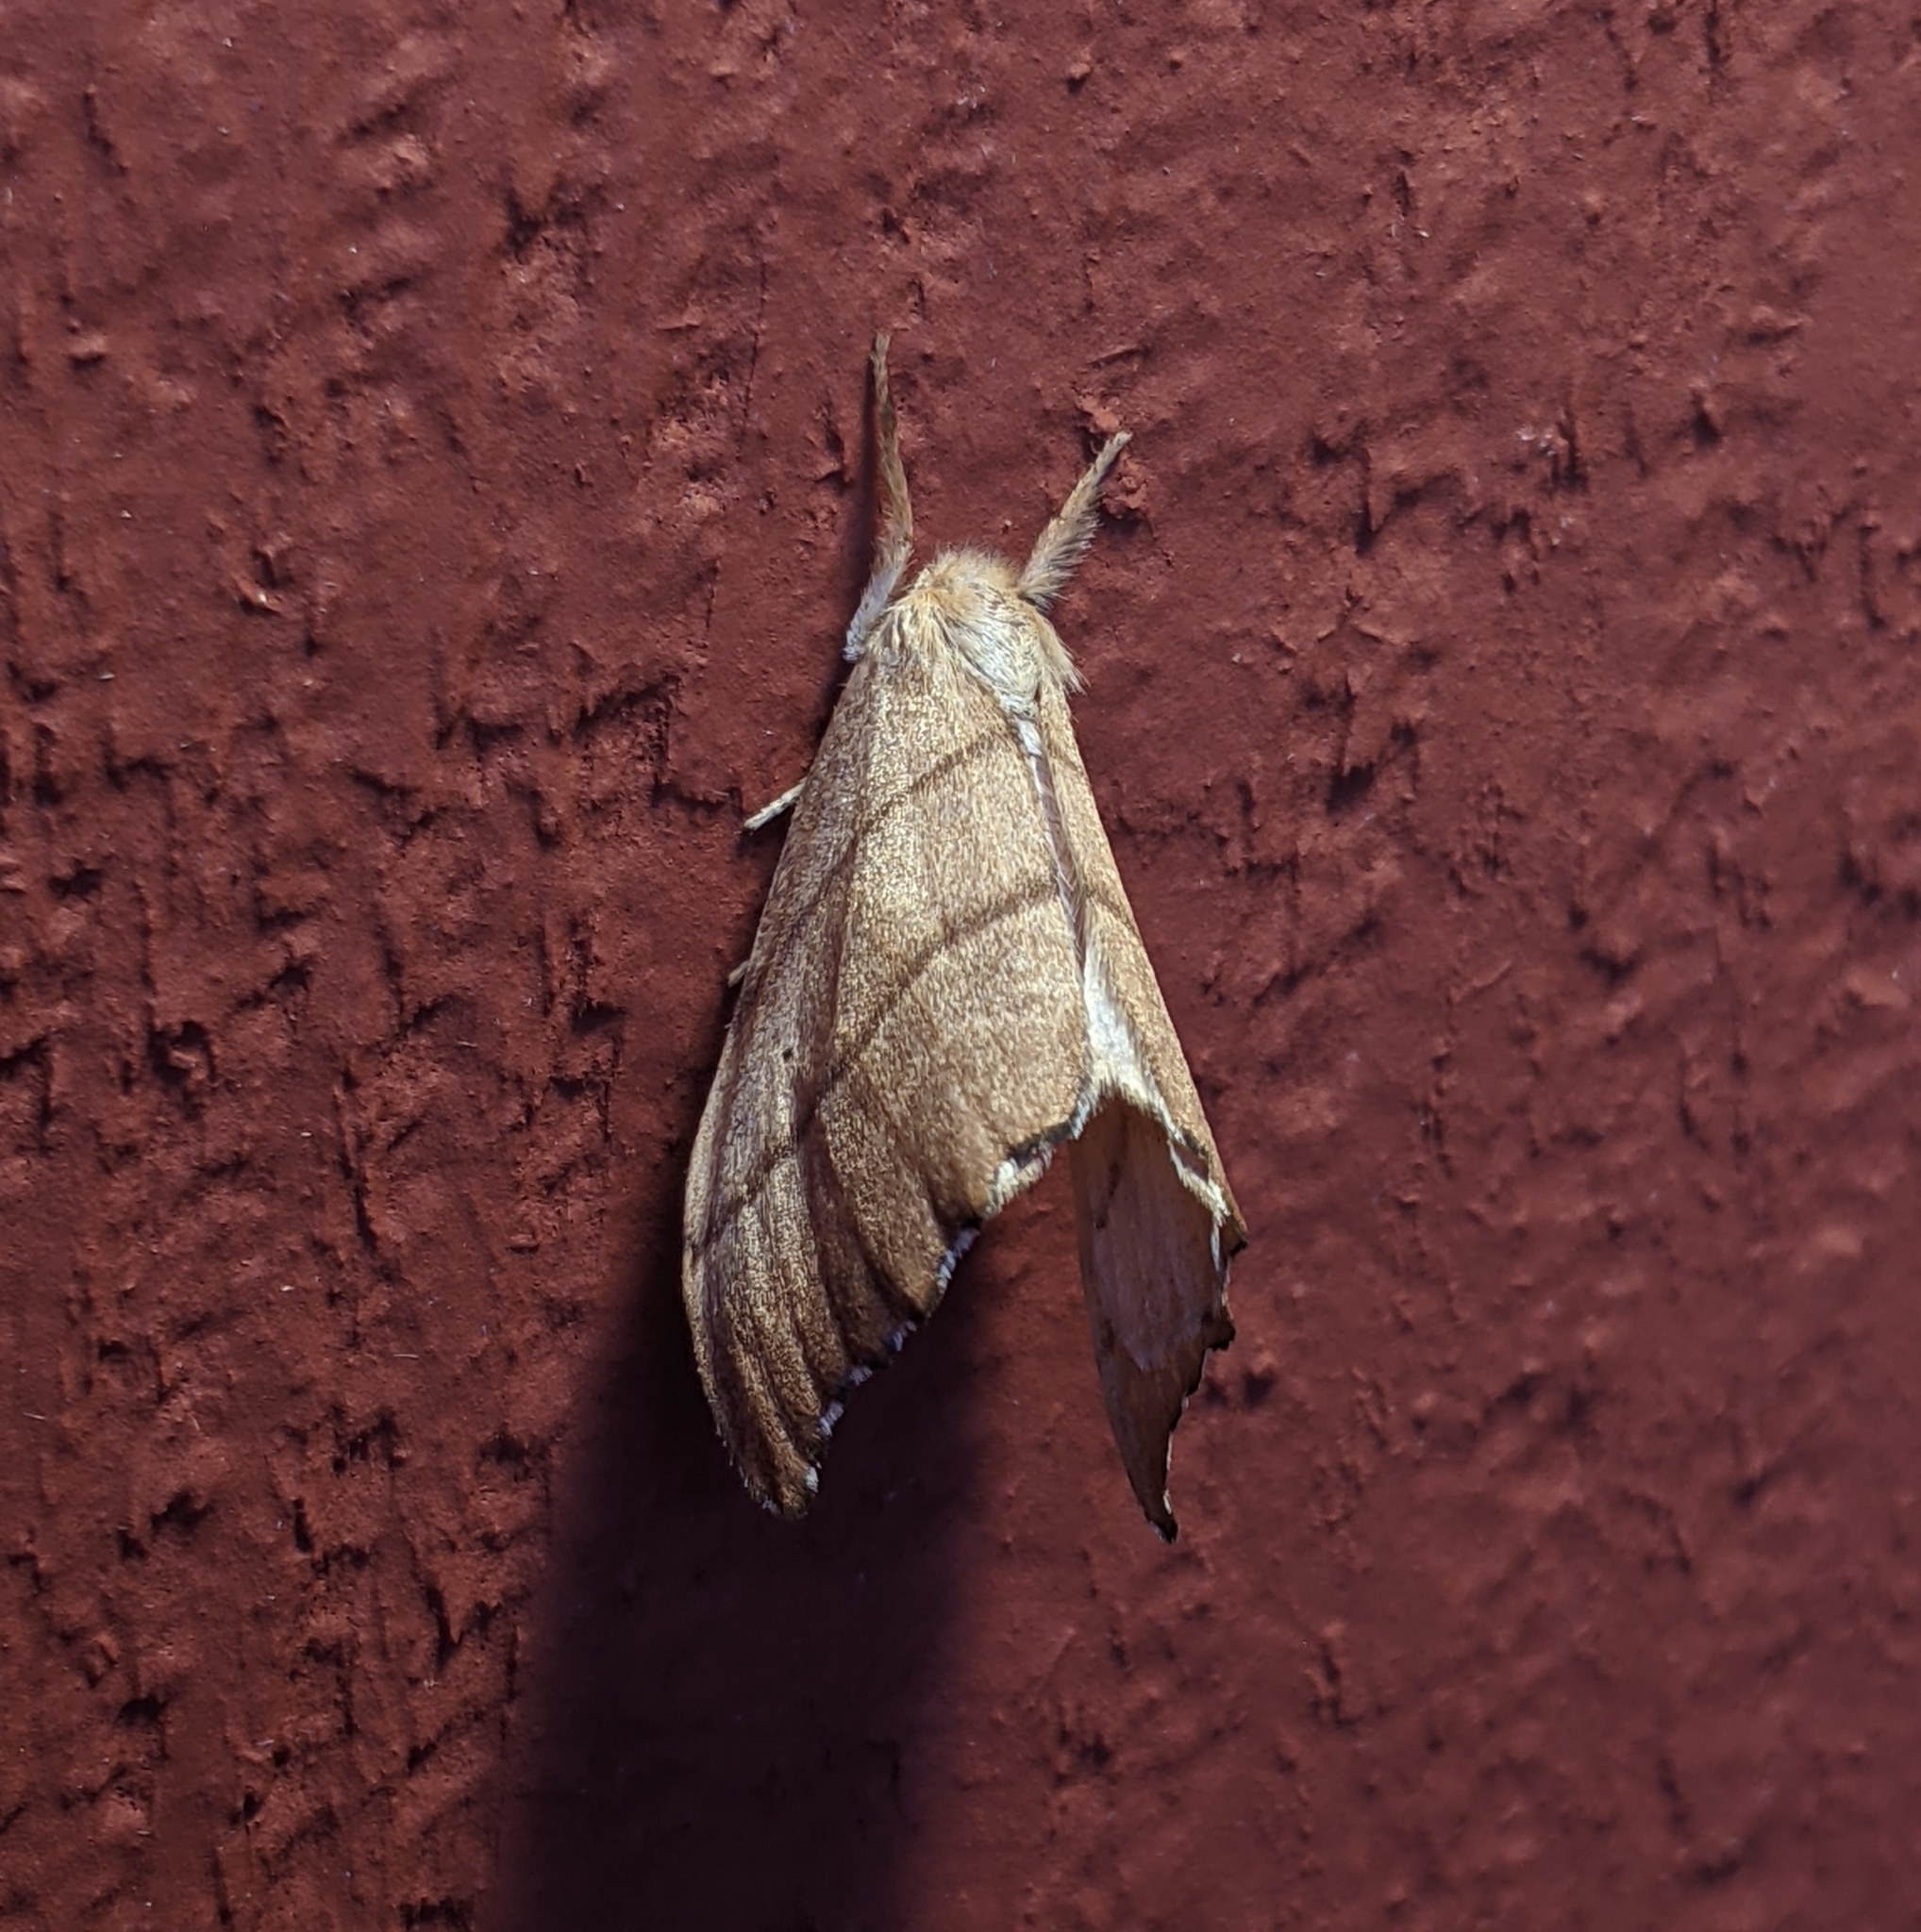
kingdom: Animalia
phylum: Arthropoda
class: Insecta
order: Lepidoptera
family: Drepanidae
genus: Falcaria
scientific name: Falcaria bilineata
